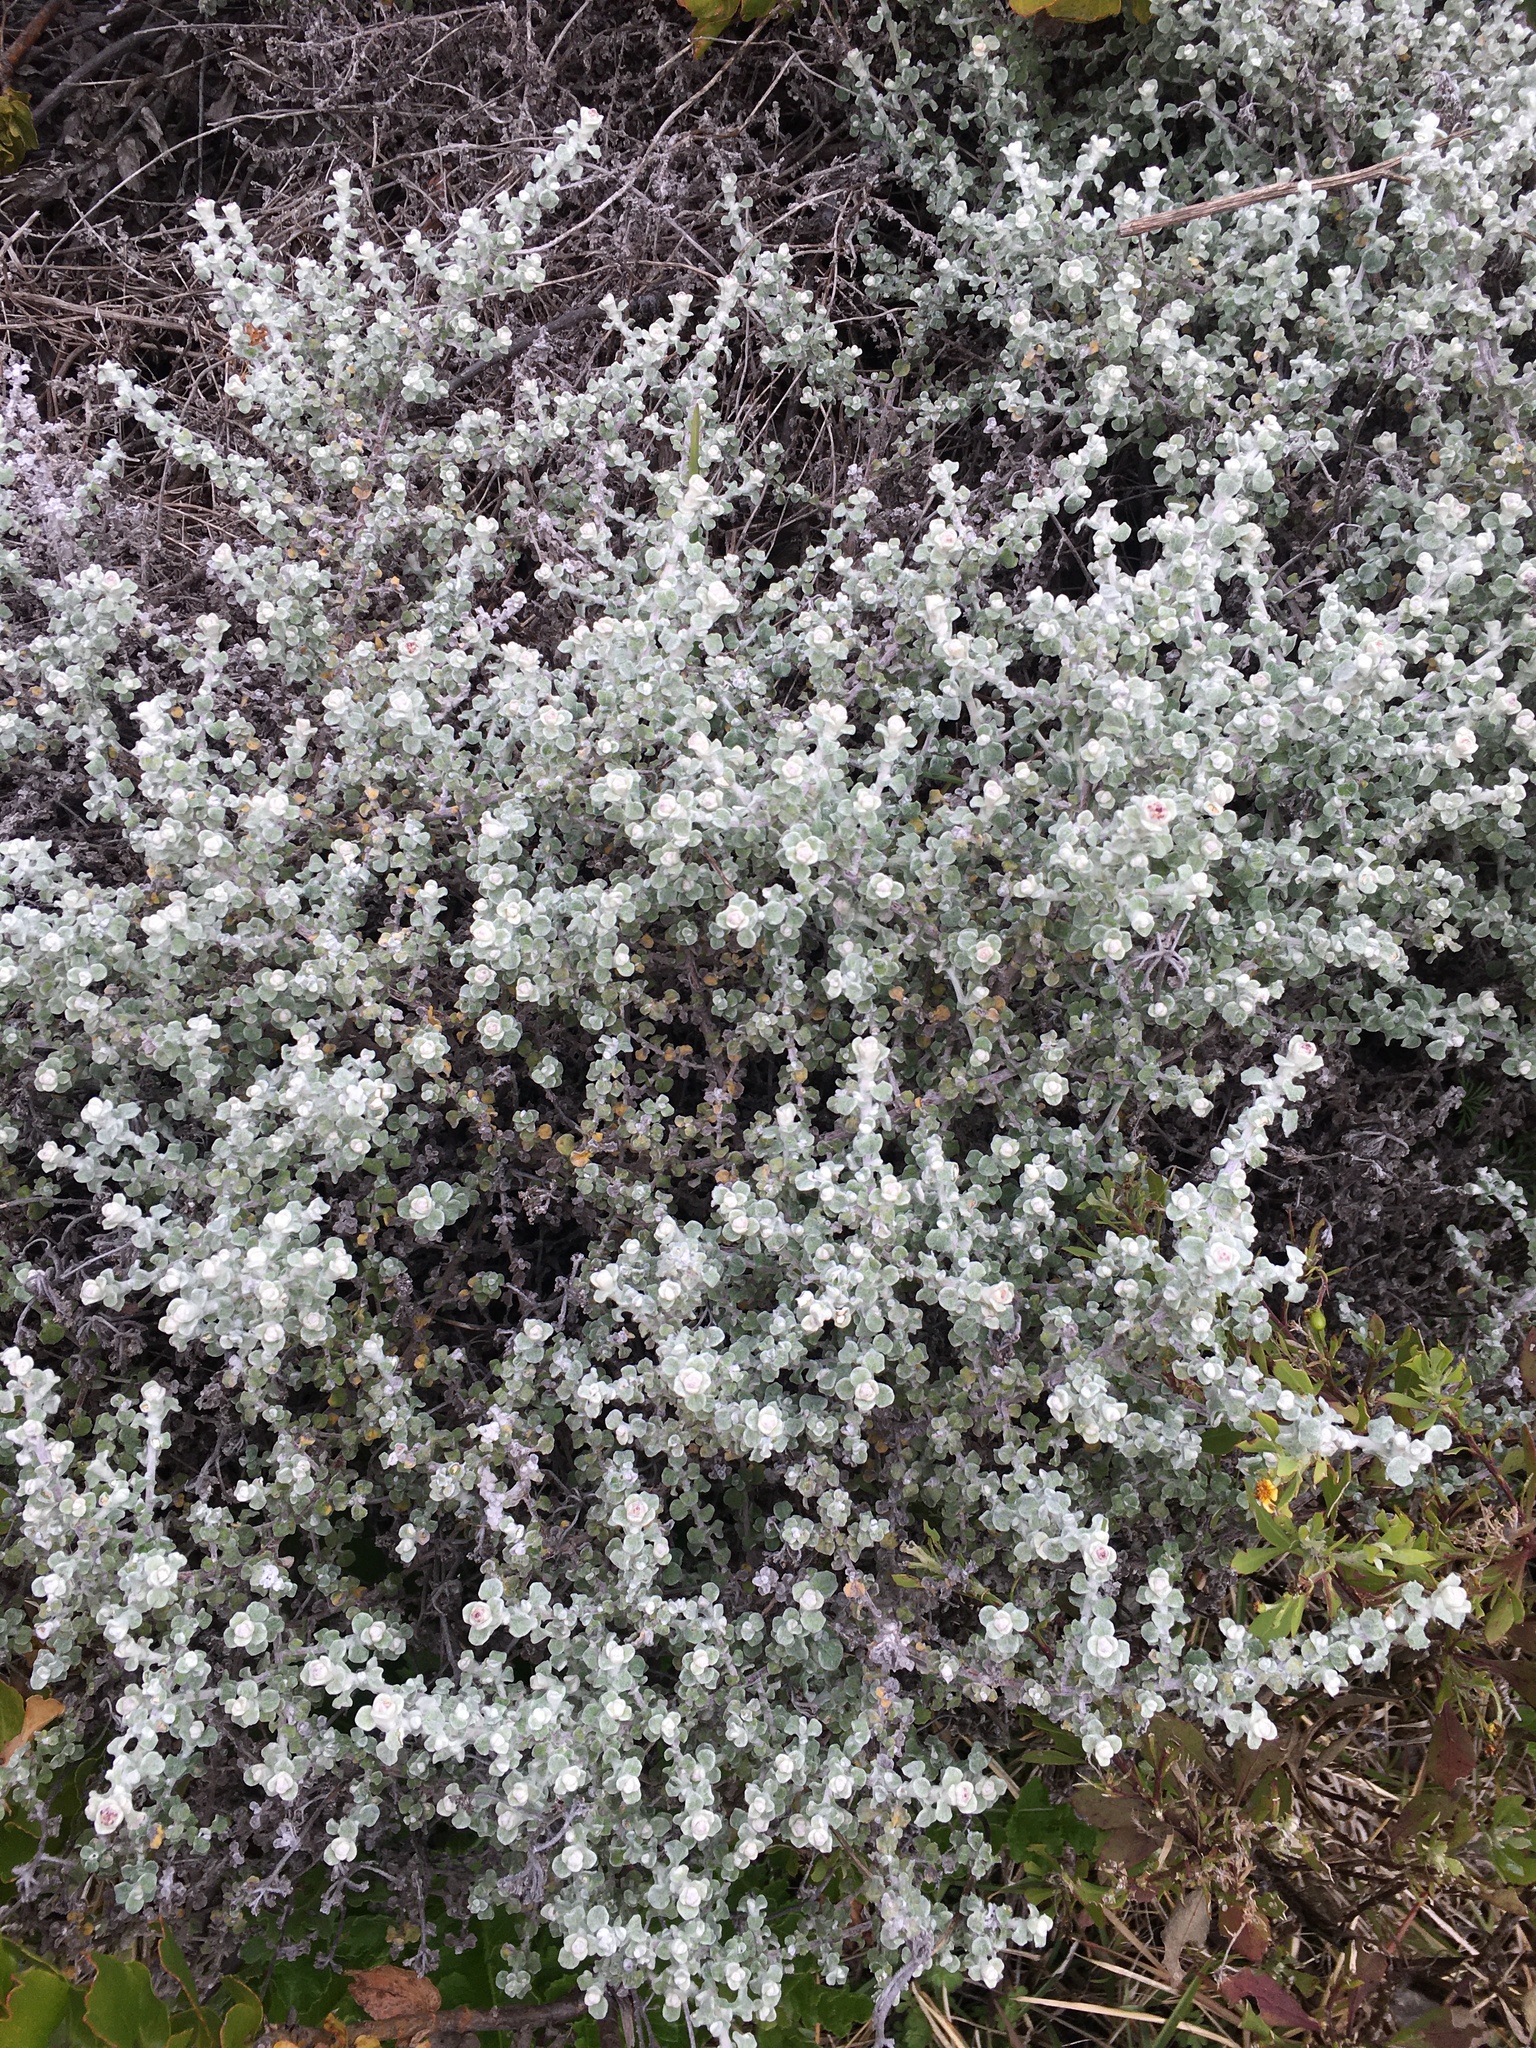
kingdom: Plantae
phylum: Tracheophyta
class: Magnoliopsida
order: Asterales
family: Asteraceae
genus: Helichrysum
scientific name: Helichrysum patulum
